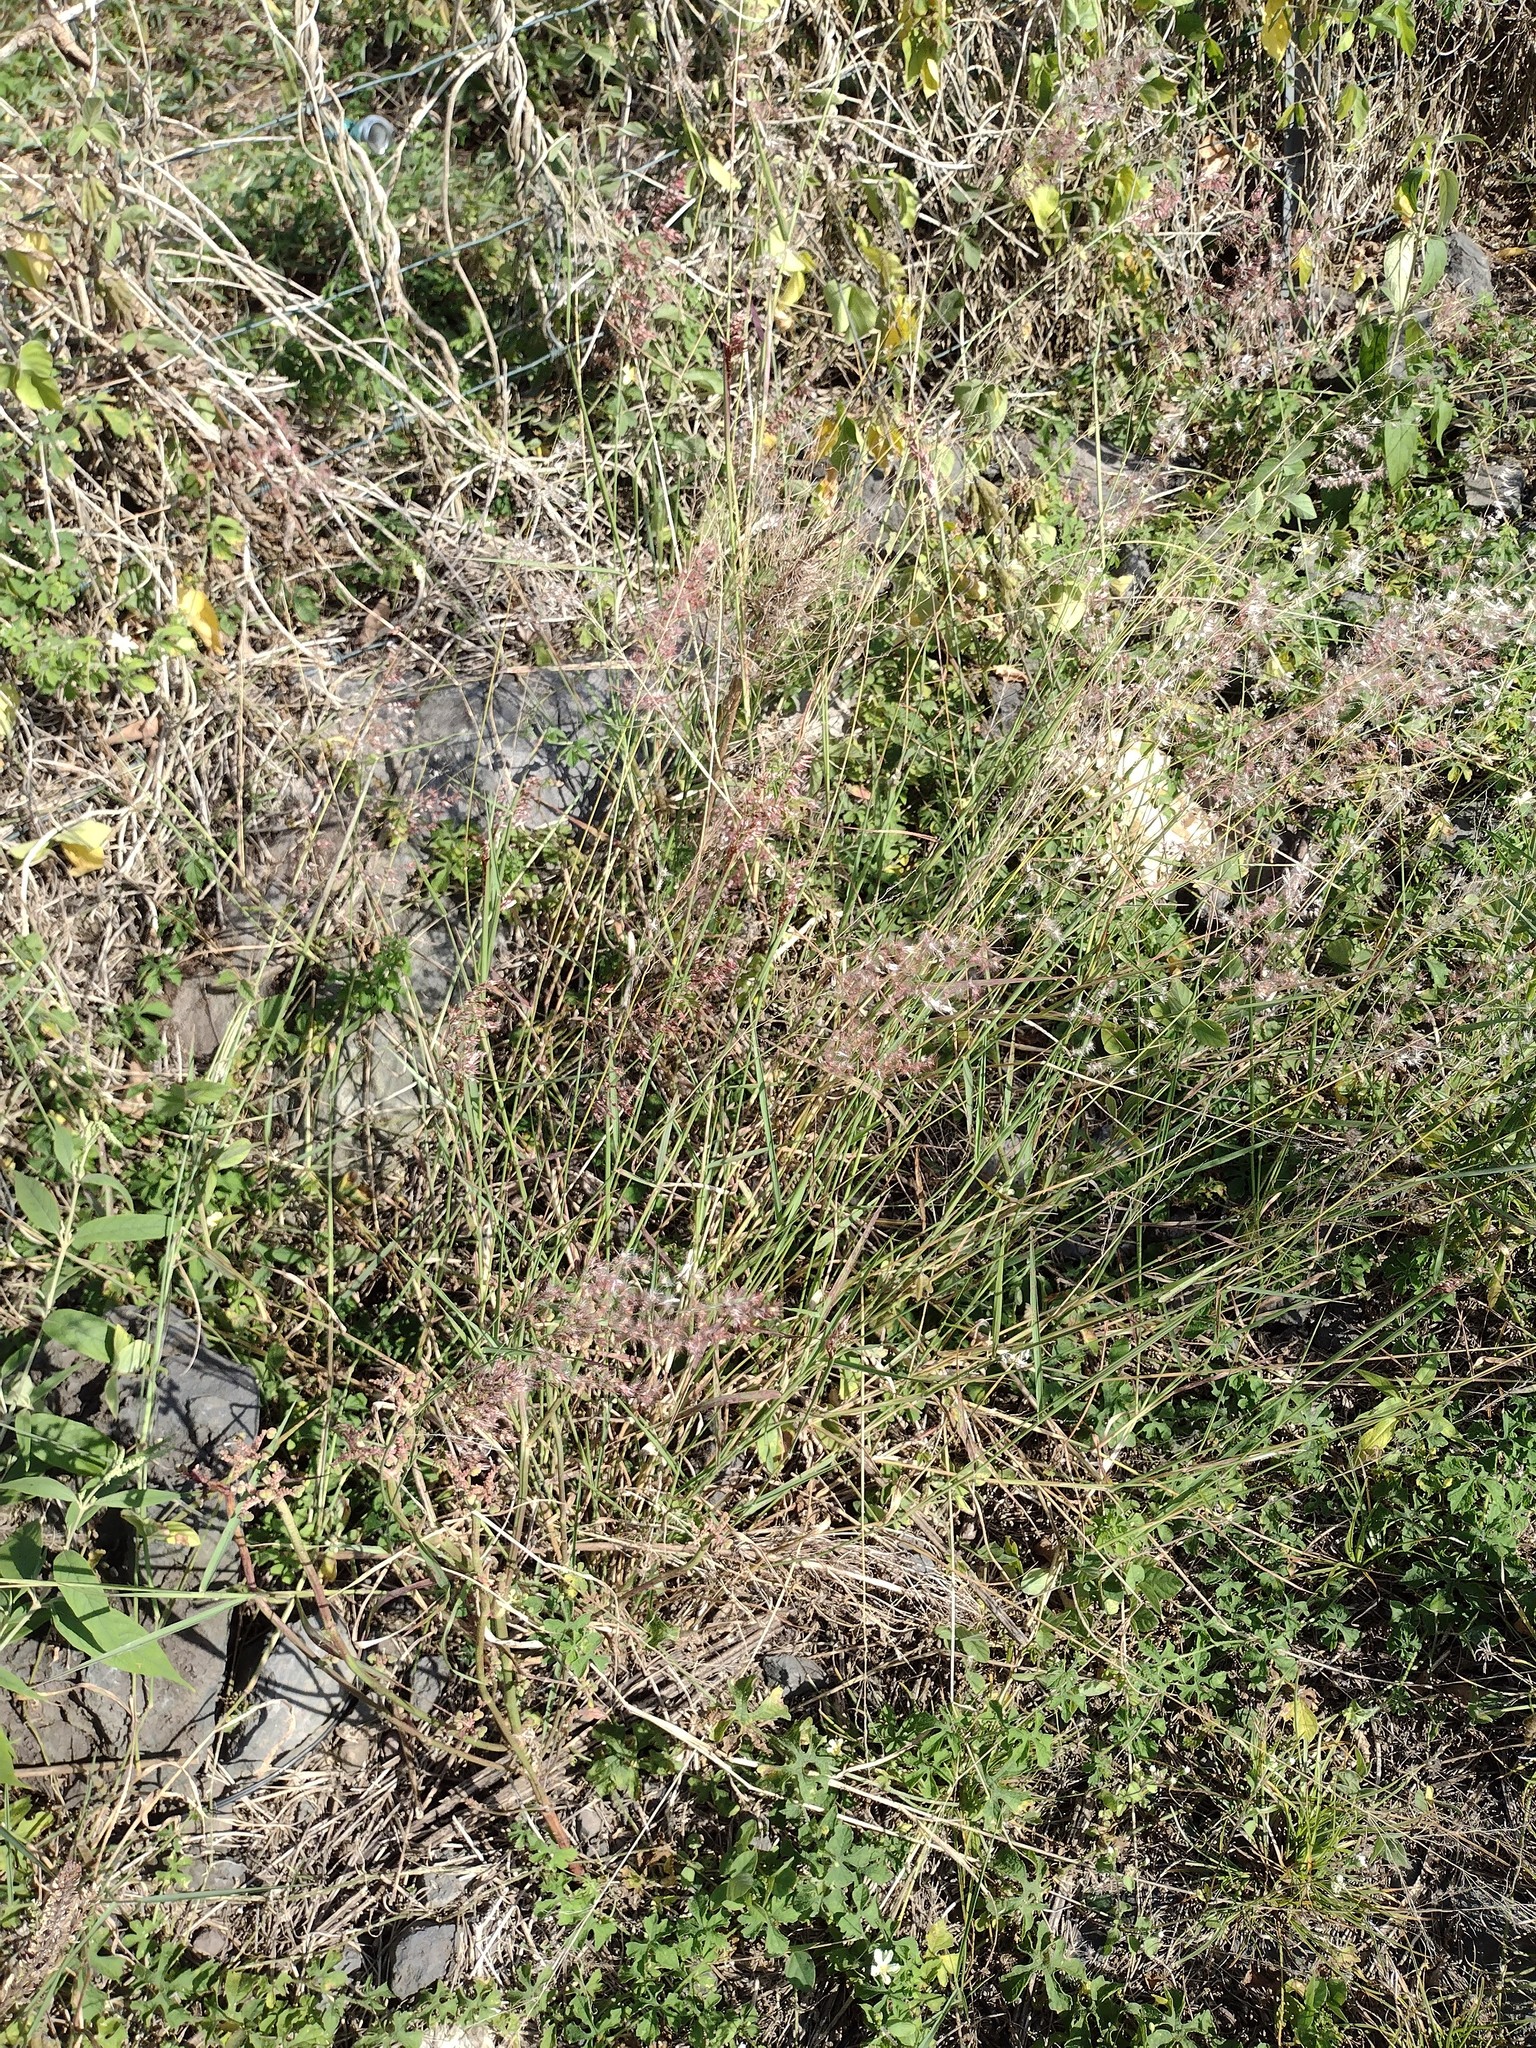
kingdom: Plantae
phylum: Tracheophyta
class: Liliopsida
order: Poales
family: Poaceae
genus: Melinis
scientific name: Melinis repens
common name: Rose natal grass
